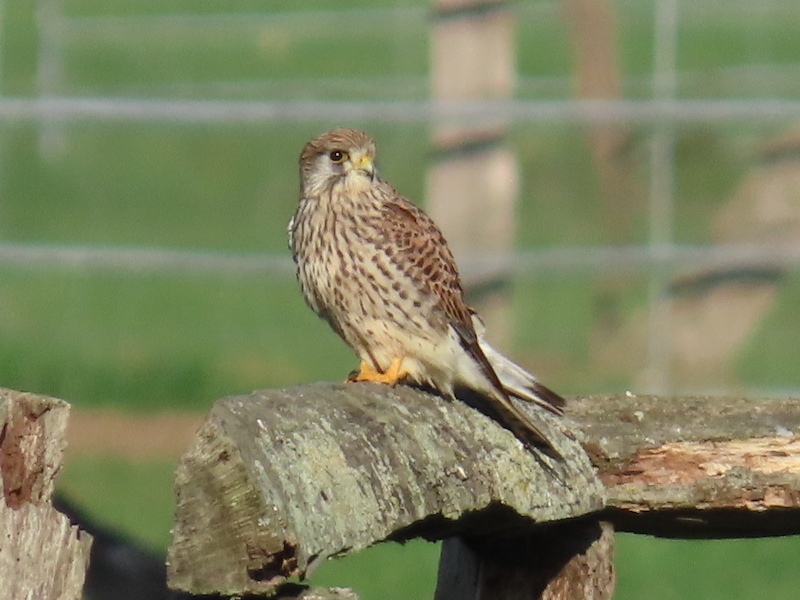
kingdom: Animalia
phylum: Chordata
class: Aves
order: Falconiformes
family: Falconidae
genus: Falco
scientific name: Falco tinnunculus
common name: Common kestrel
